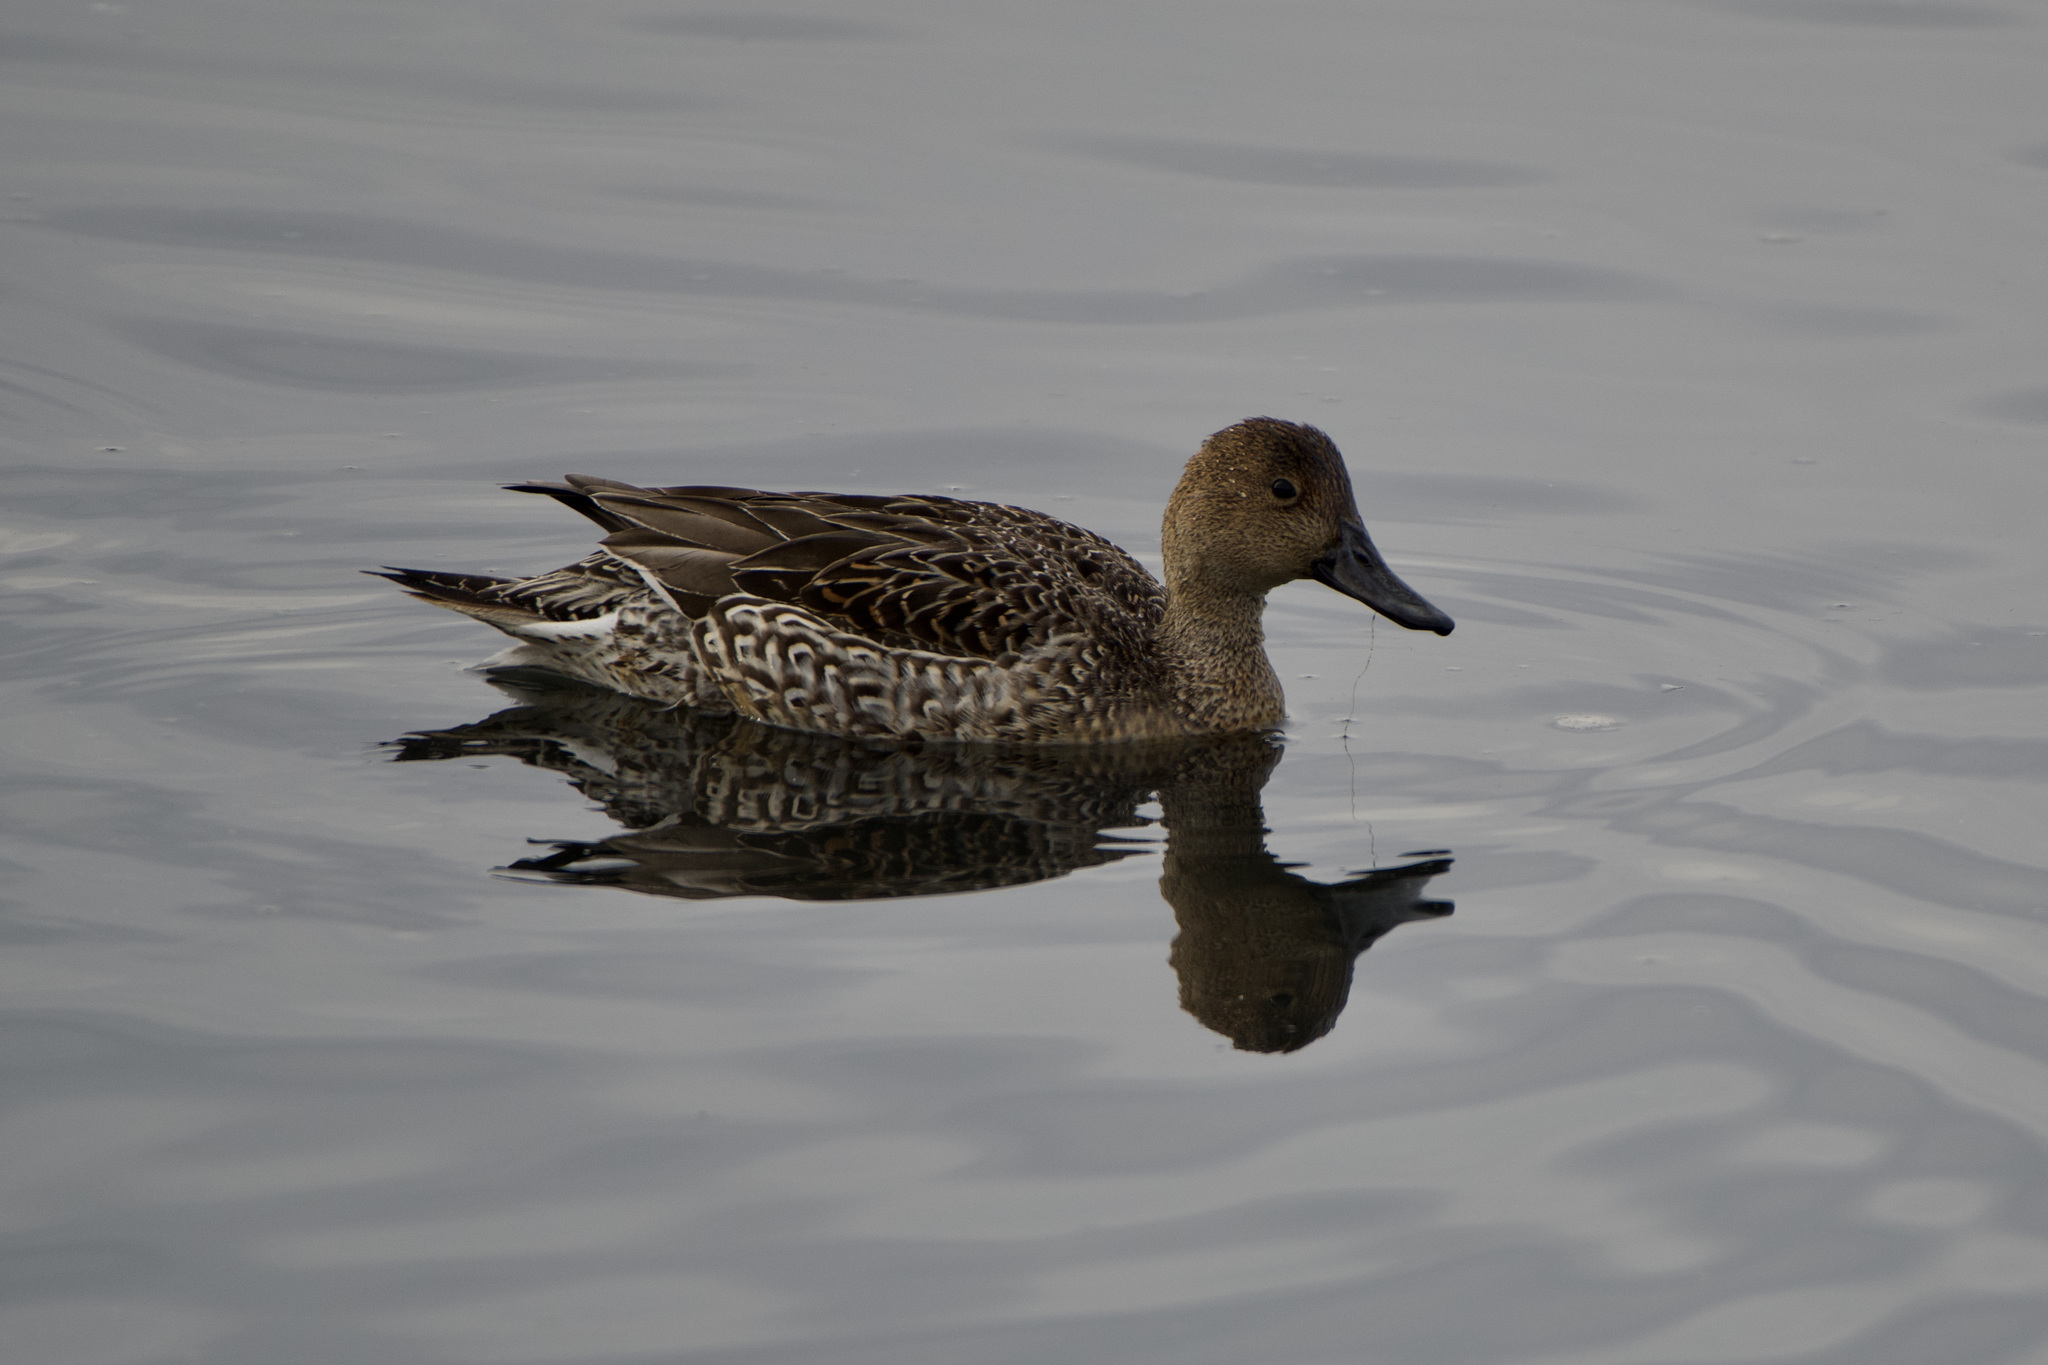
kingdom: Animalia
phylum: Chordata
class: Aves
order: Anseriformes
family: Anatidae
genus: Anas
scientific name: Anas acuta
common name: Northern pintail
